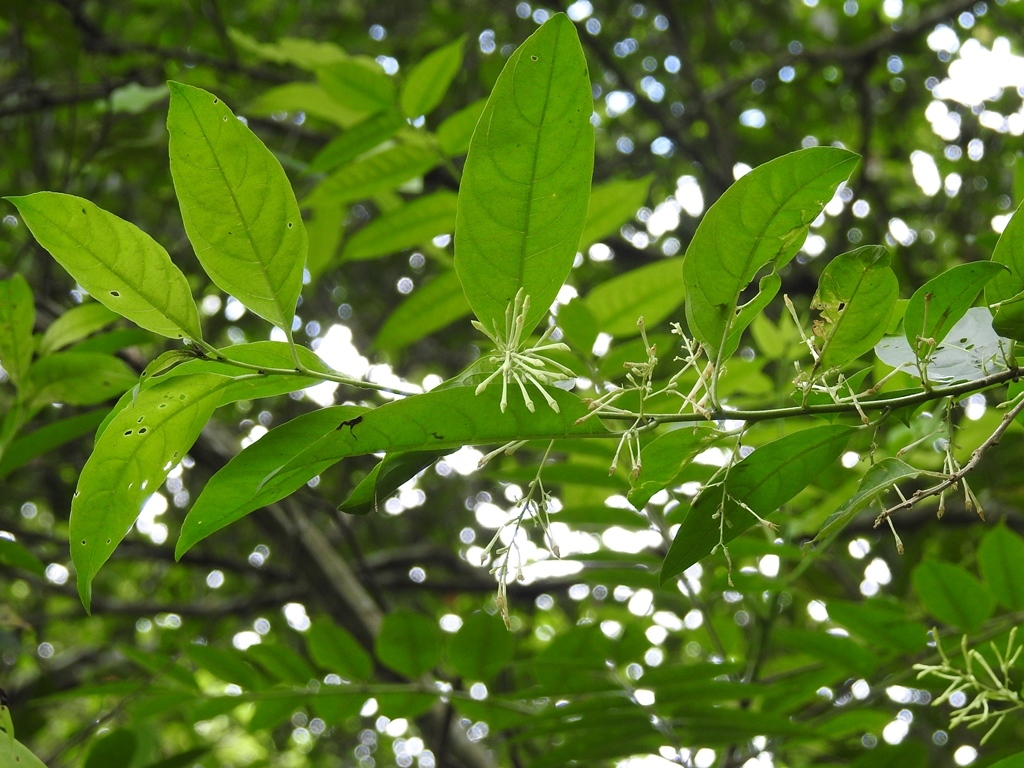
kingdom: Plantae
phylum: Tracheophyta
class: Magnoliopsida
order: Solanales
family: Solanaceae
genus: Cestrum
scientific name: Cestrum nocturnum
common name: Night jessamine
